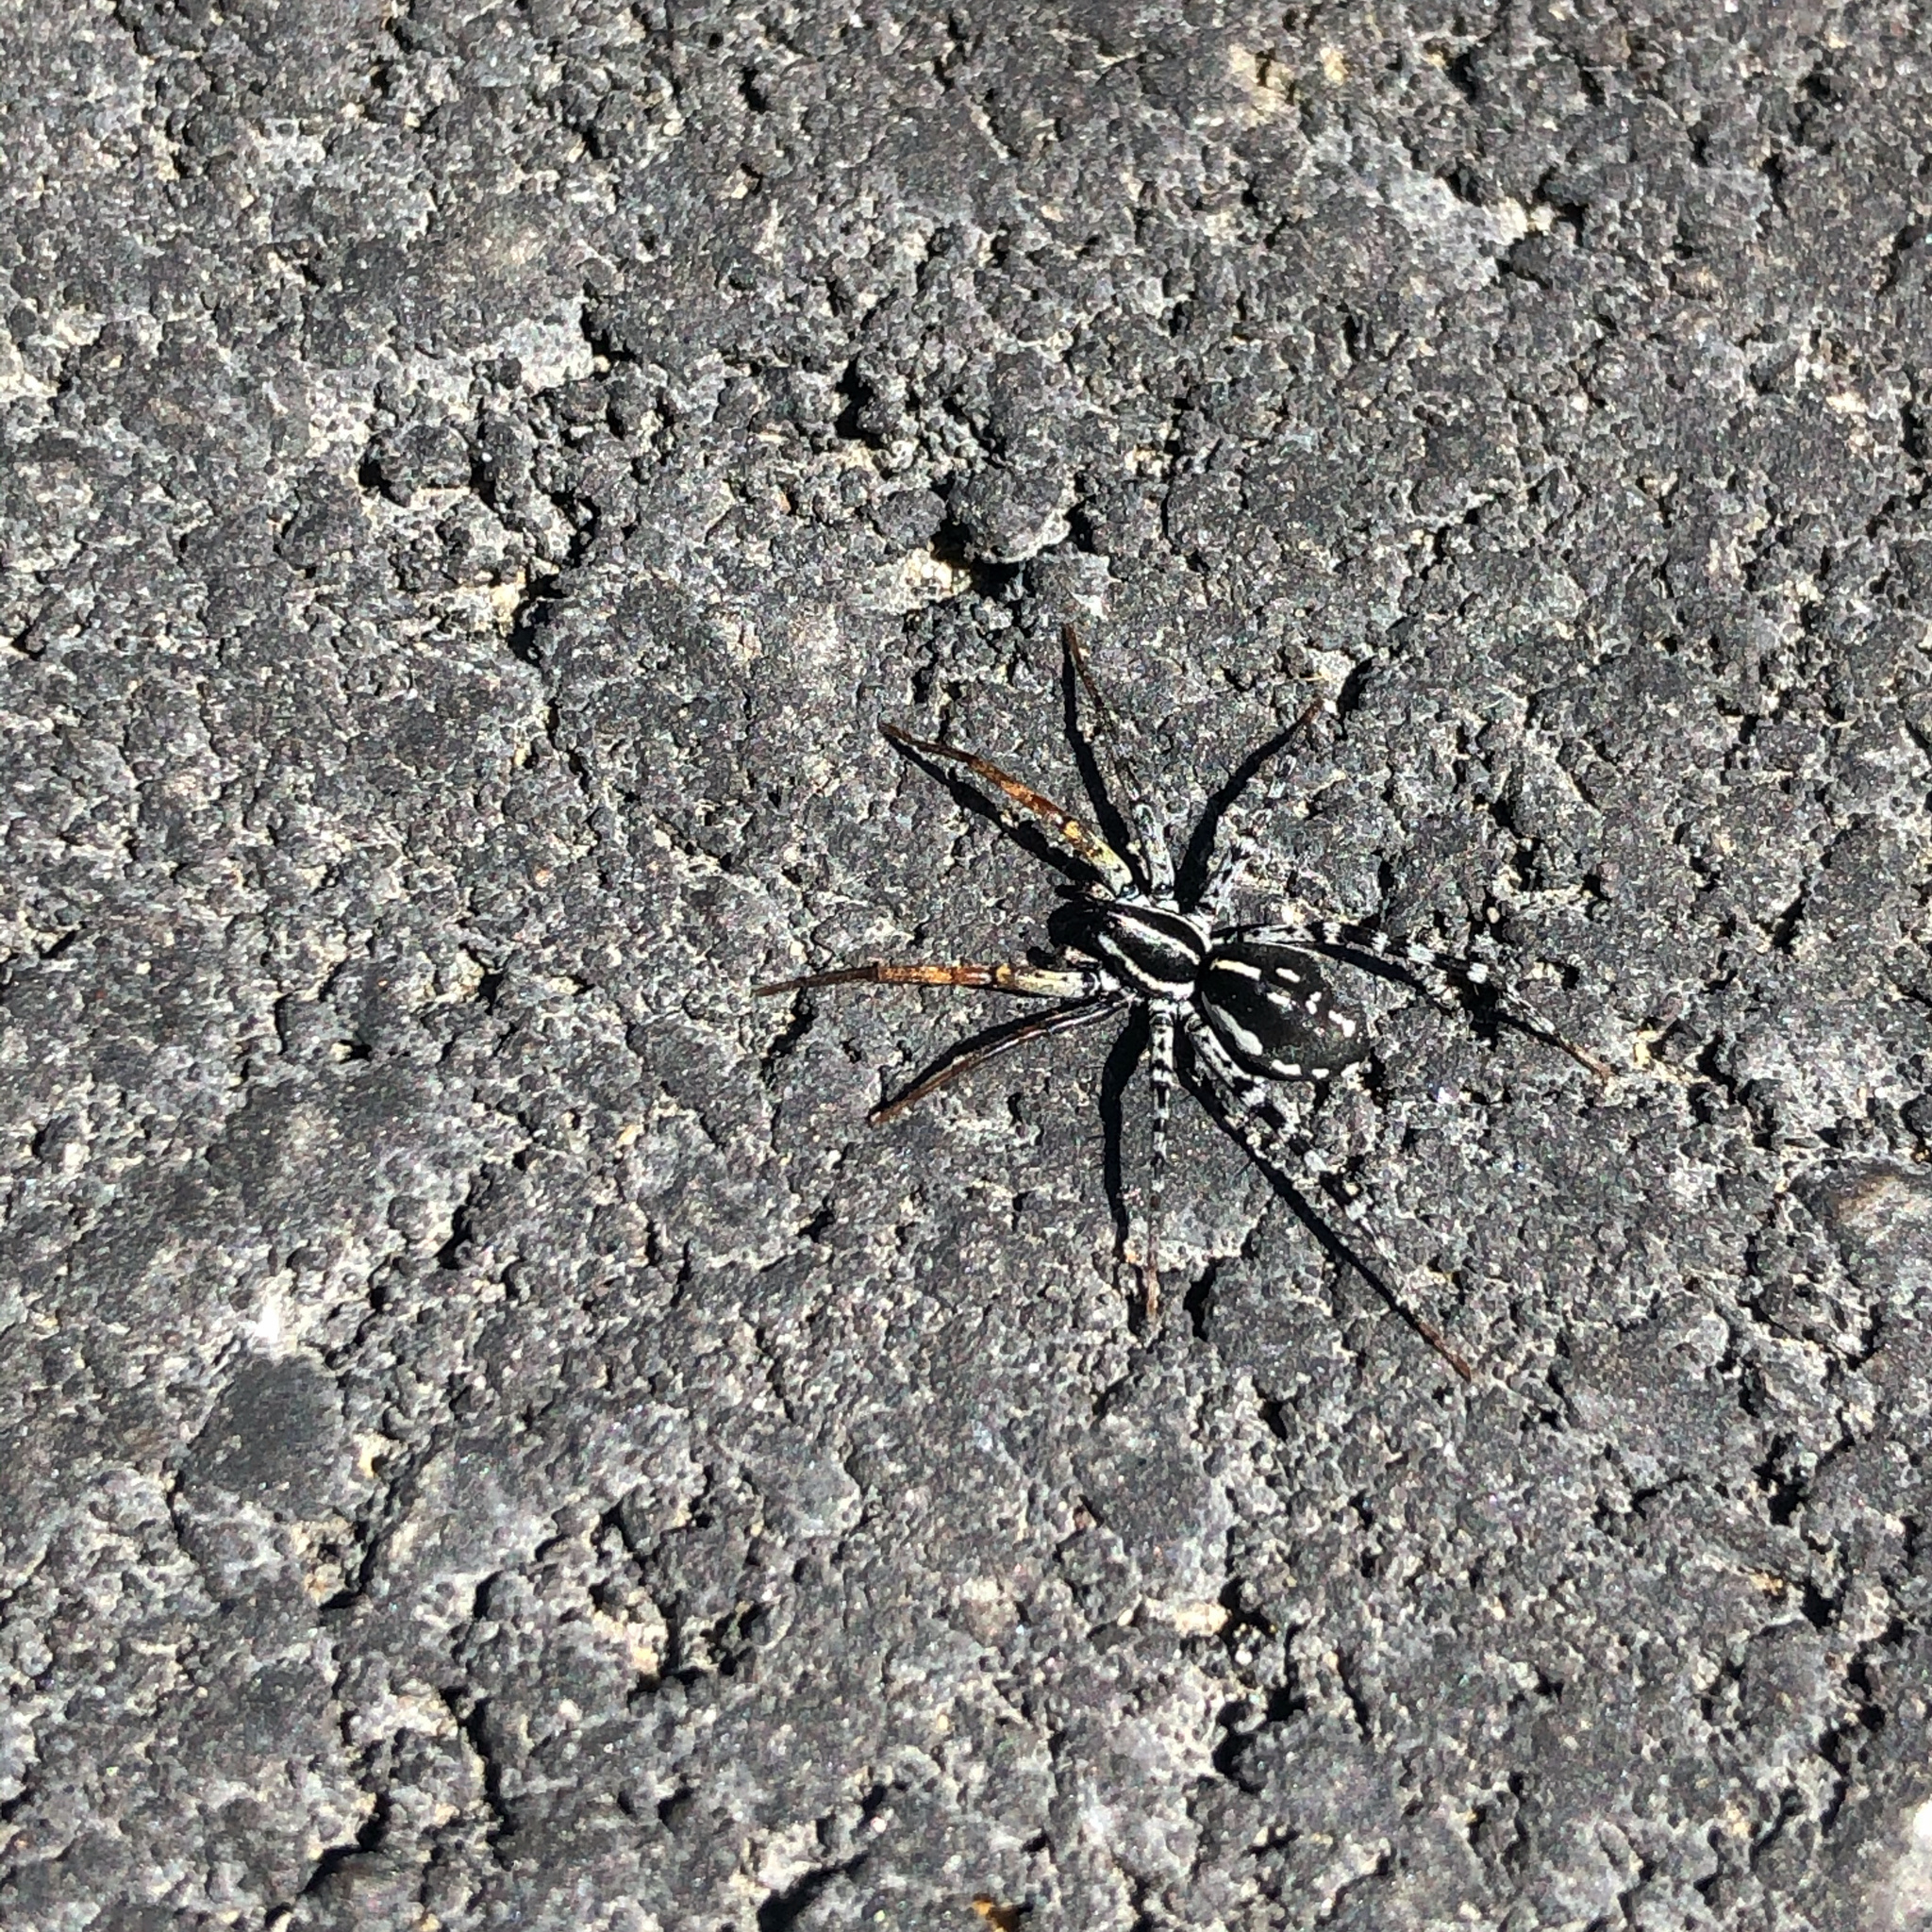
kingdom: Animalia
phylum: Arthropoda
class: Arachnida
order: Araneae
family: Corinnidae
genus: Nyssus
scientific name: Nyssus coloripes
